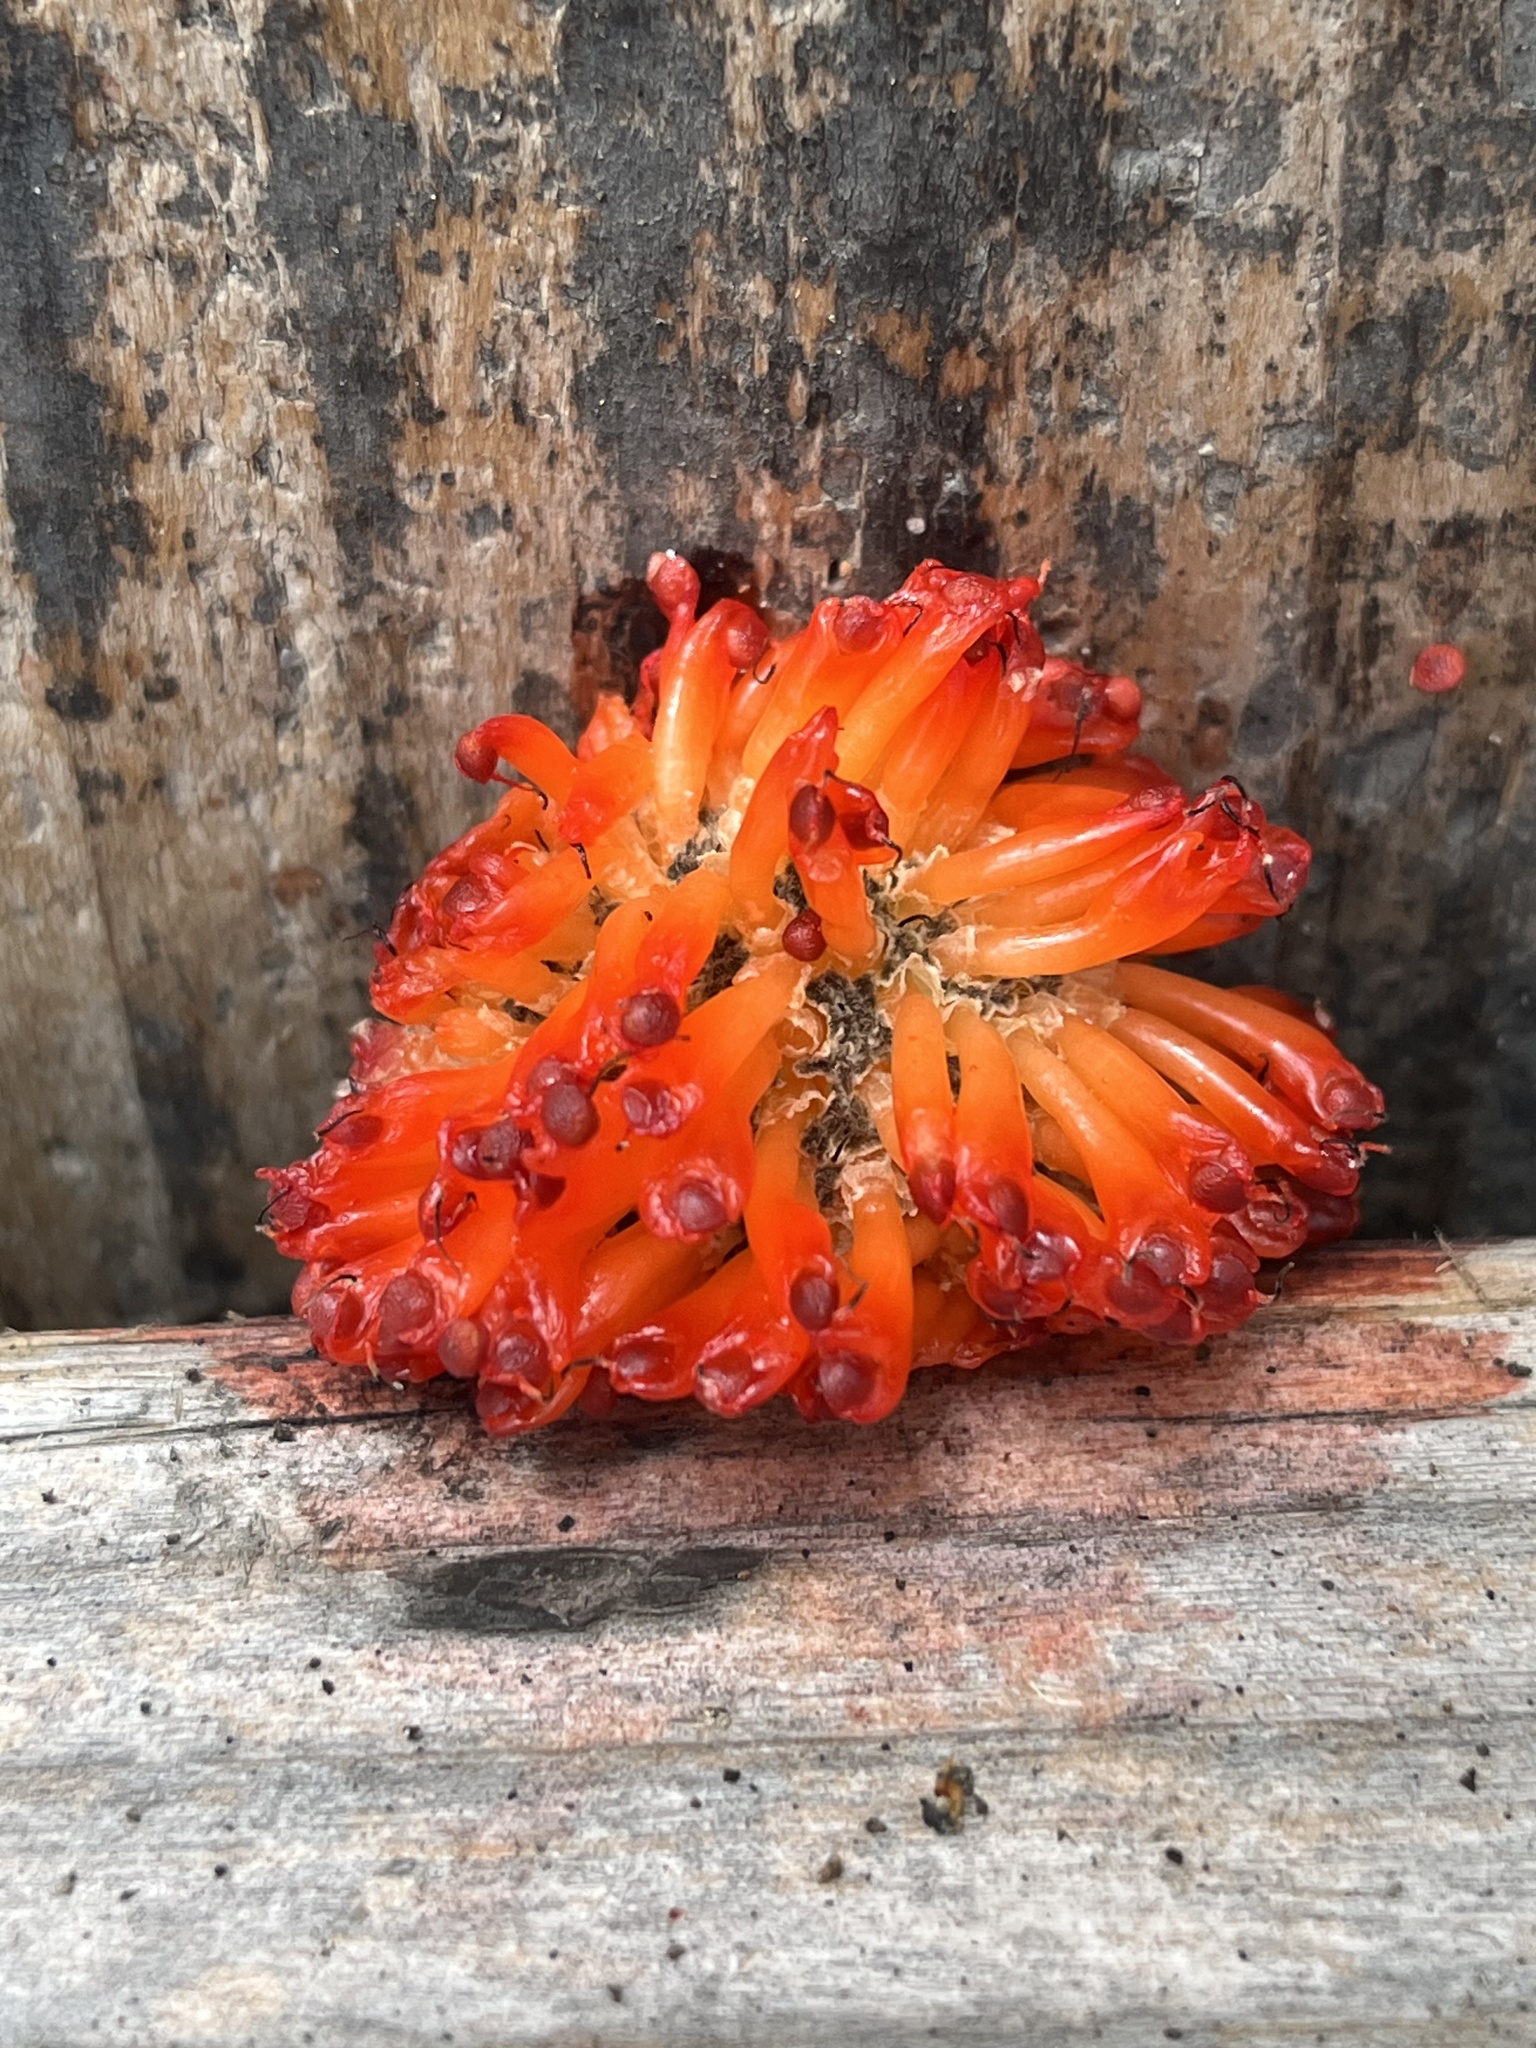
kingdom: Plantae
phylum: Tracheophyta
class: Magnoliopsida
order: Rosales
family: Moraceae
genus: Broussonetia
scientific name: Broussonetia papyrifera
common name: Paper mulberry
